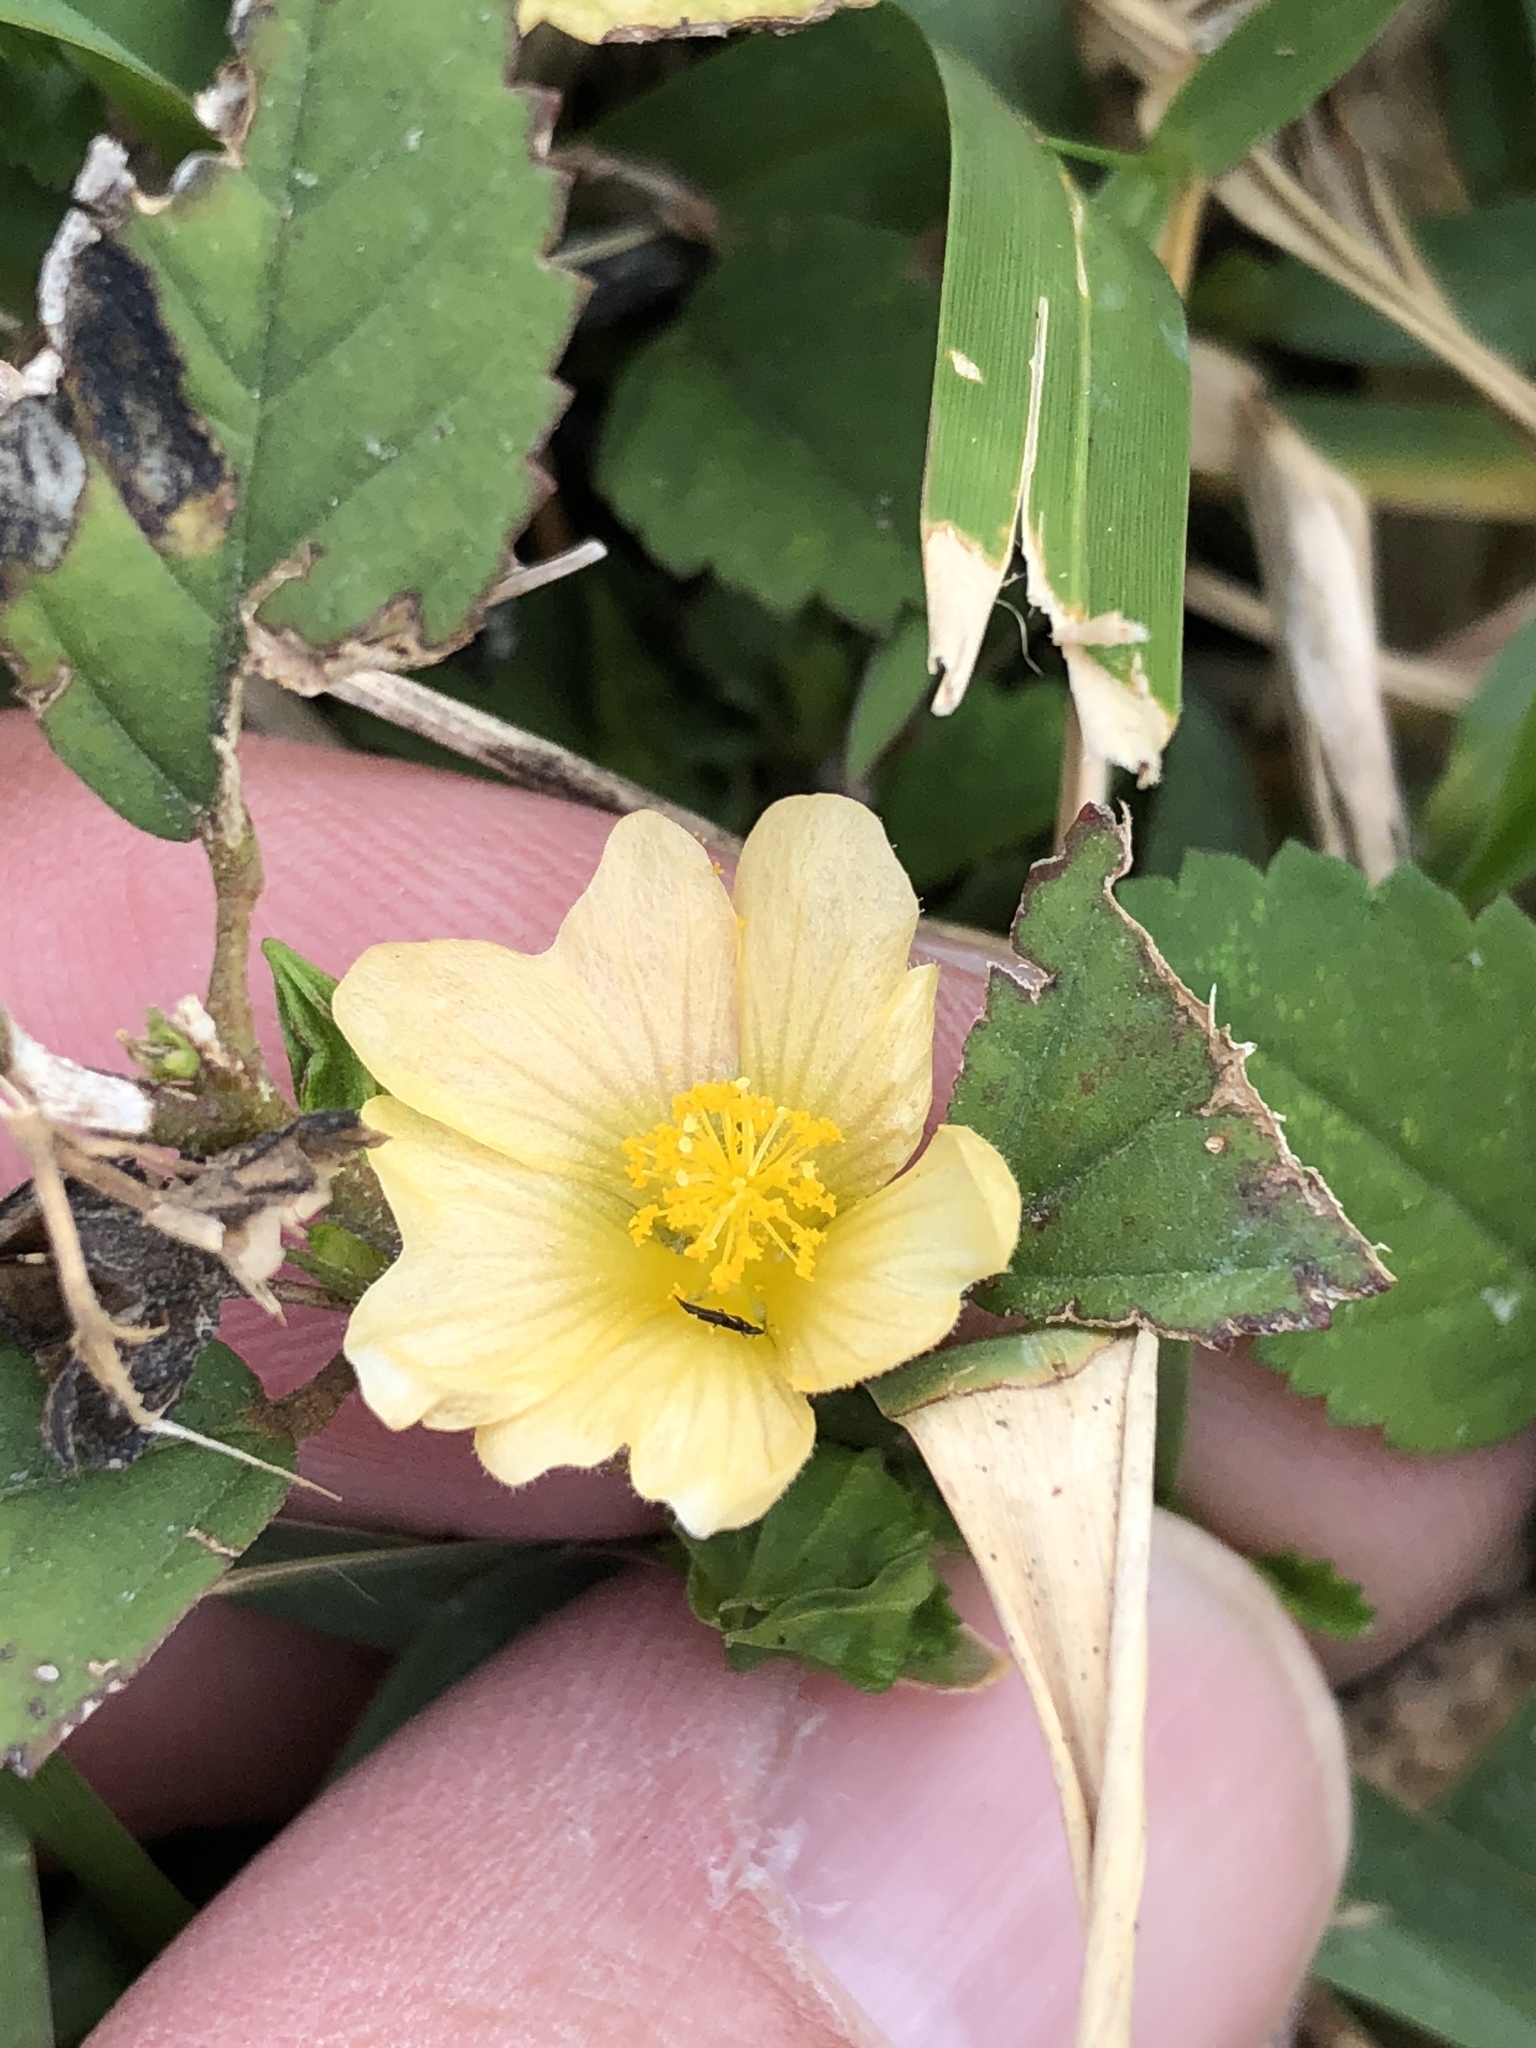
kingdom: Plantae
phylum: Tracheophyta
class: Magnoliopsida
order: Malvales
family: Malvaceae
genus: Sida
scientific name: Sida ulmifolia
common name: Broom weed
